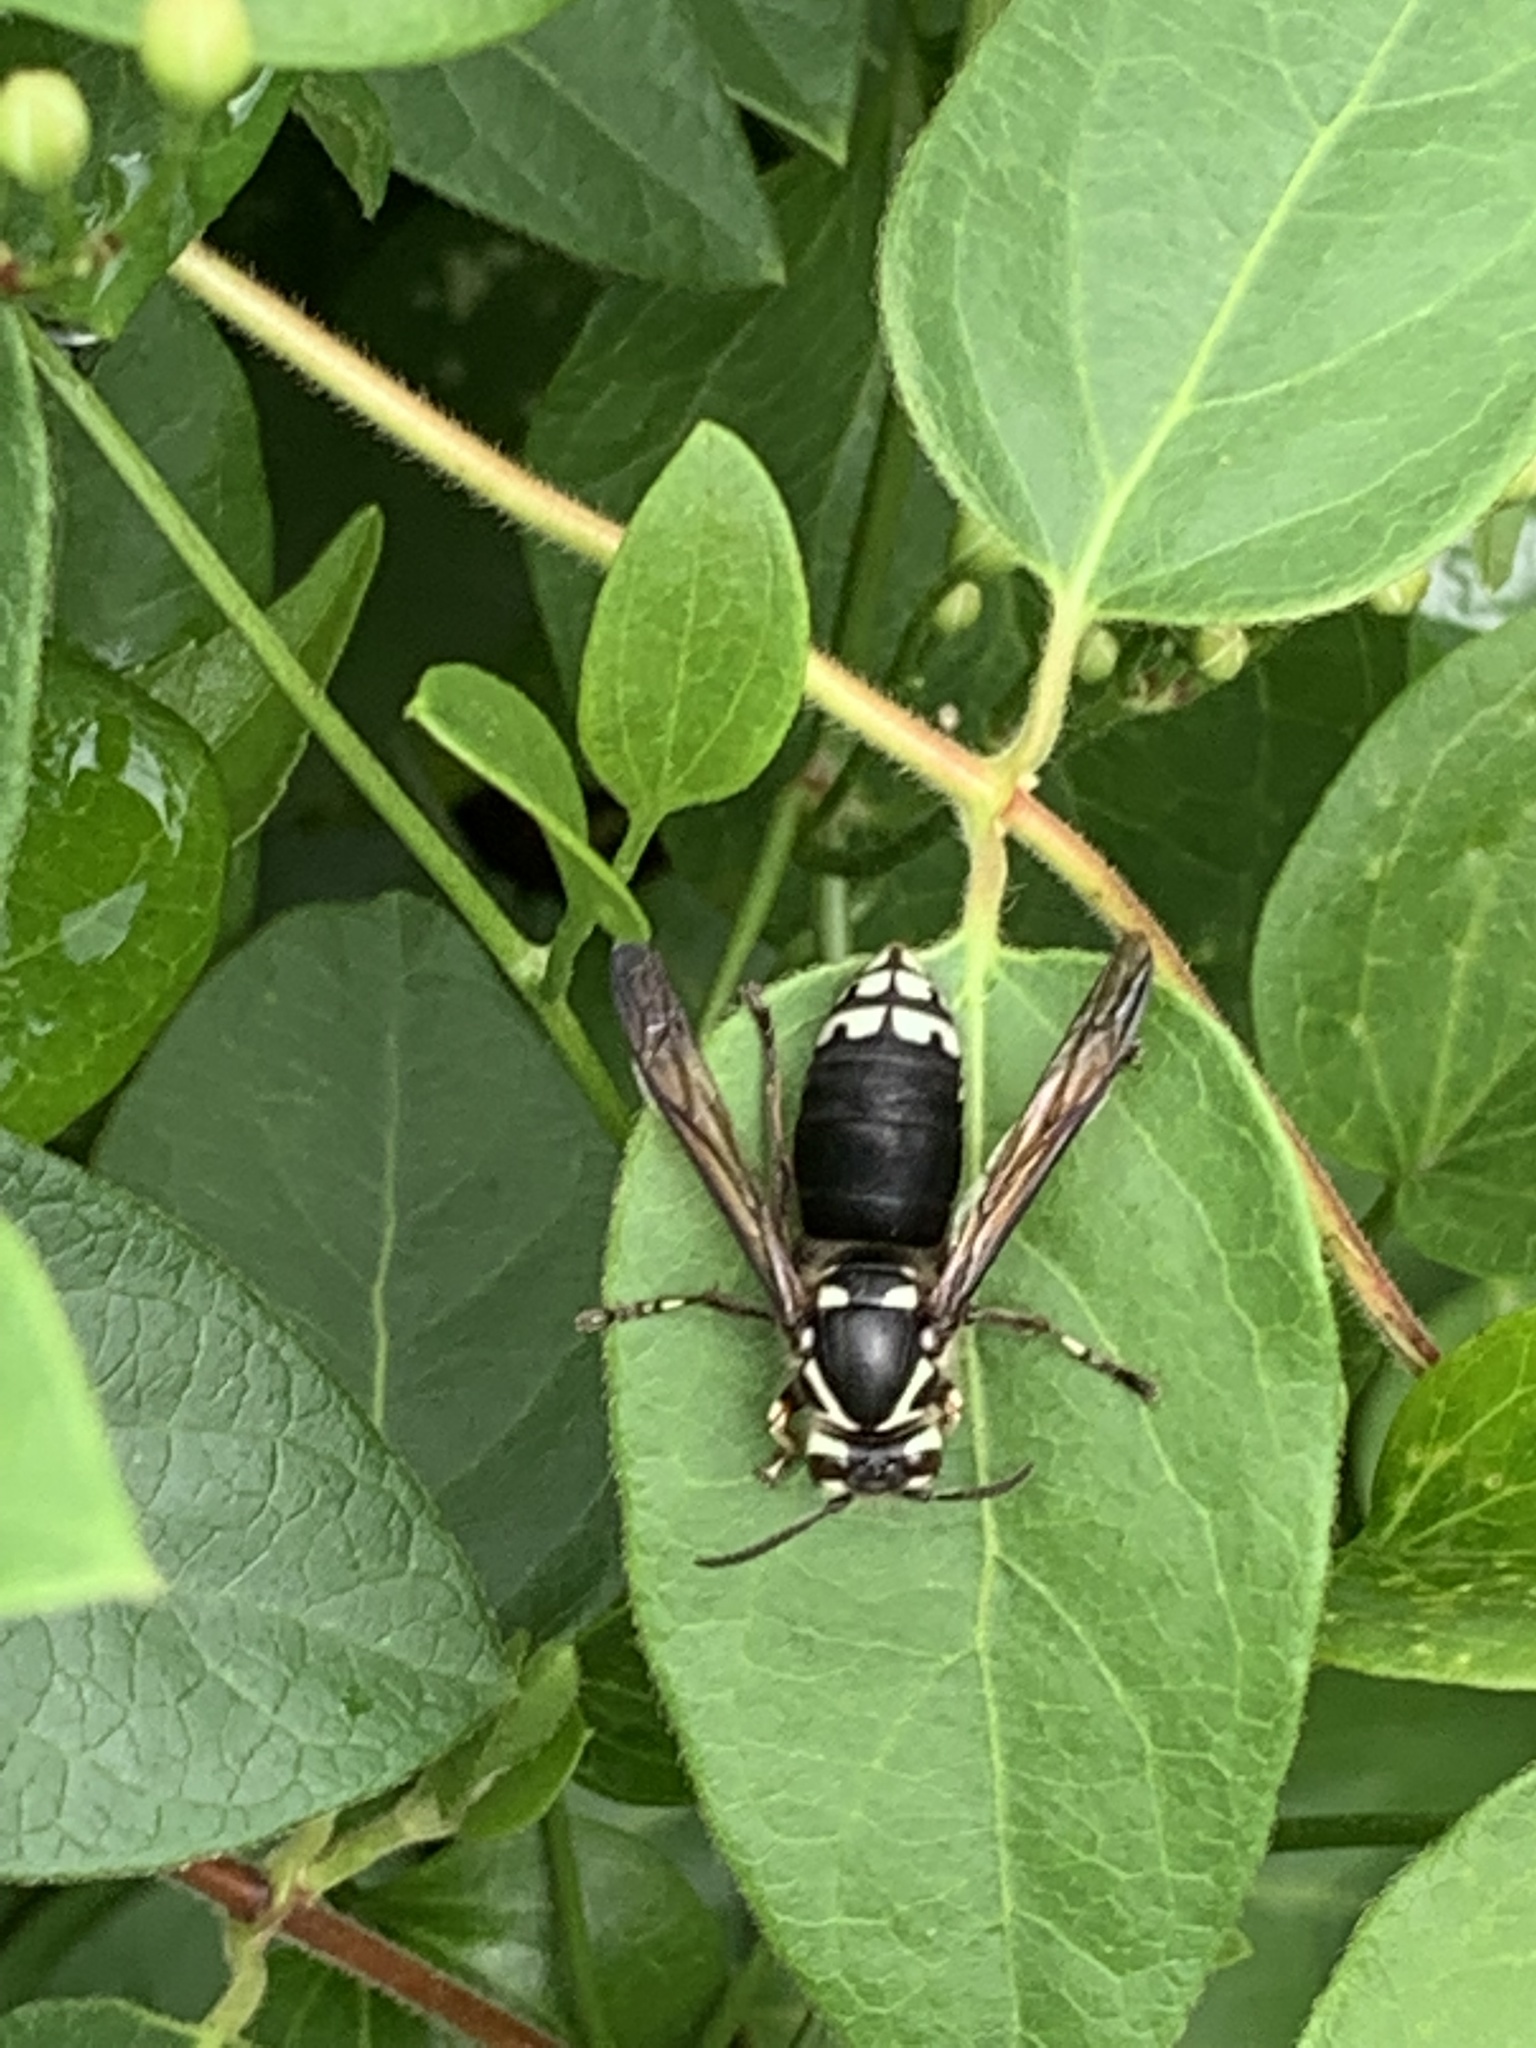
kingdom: Animalia
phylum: Arthropoda
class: Insecta
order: Hymenoptera
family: Vespidae
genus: Dolichovespula
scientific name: Dolichovespula maculata
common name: Bald-faced hornet
